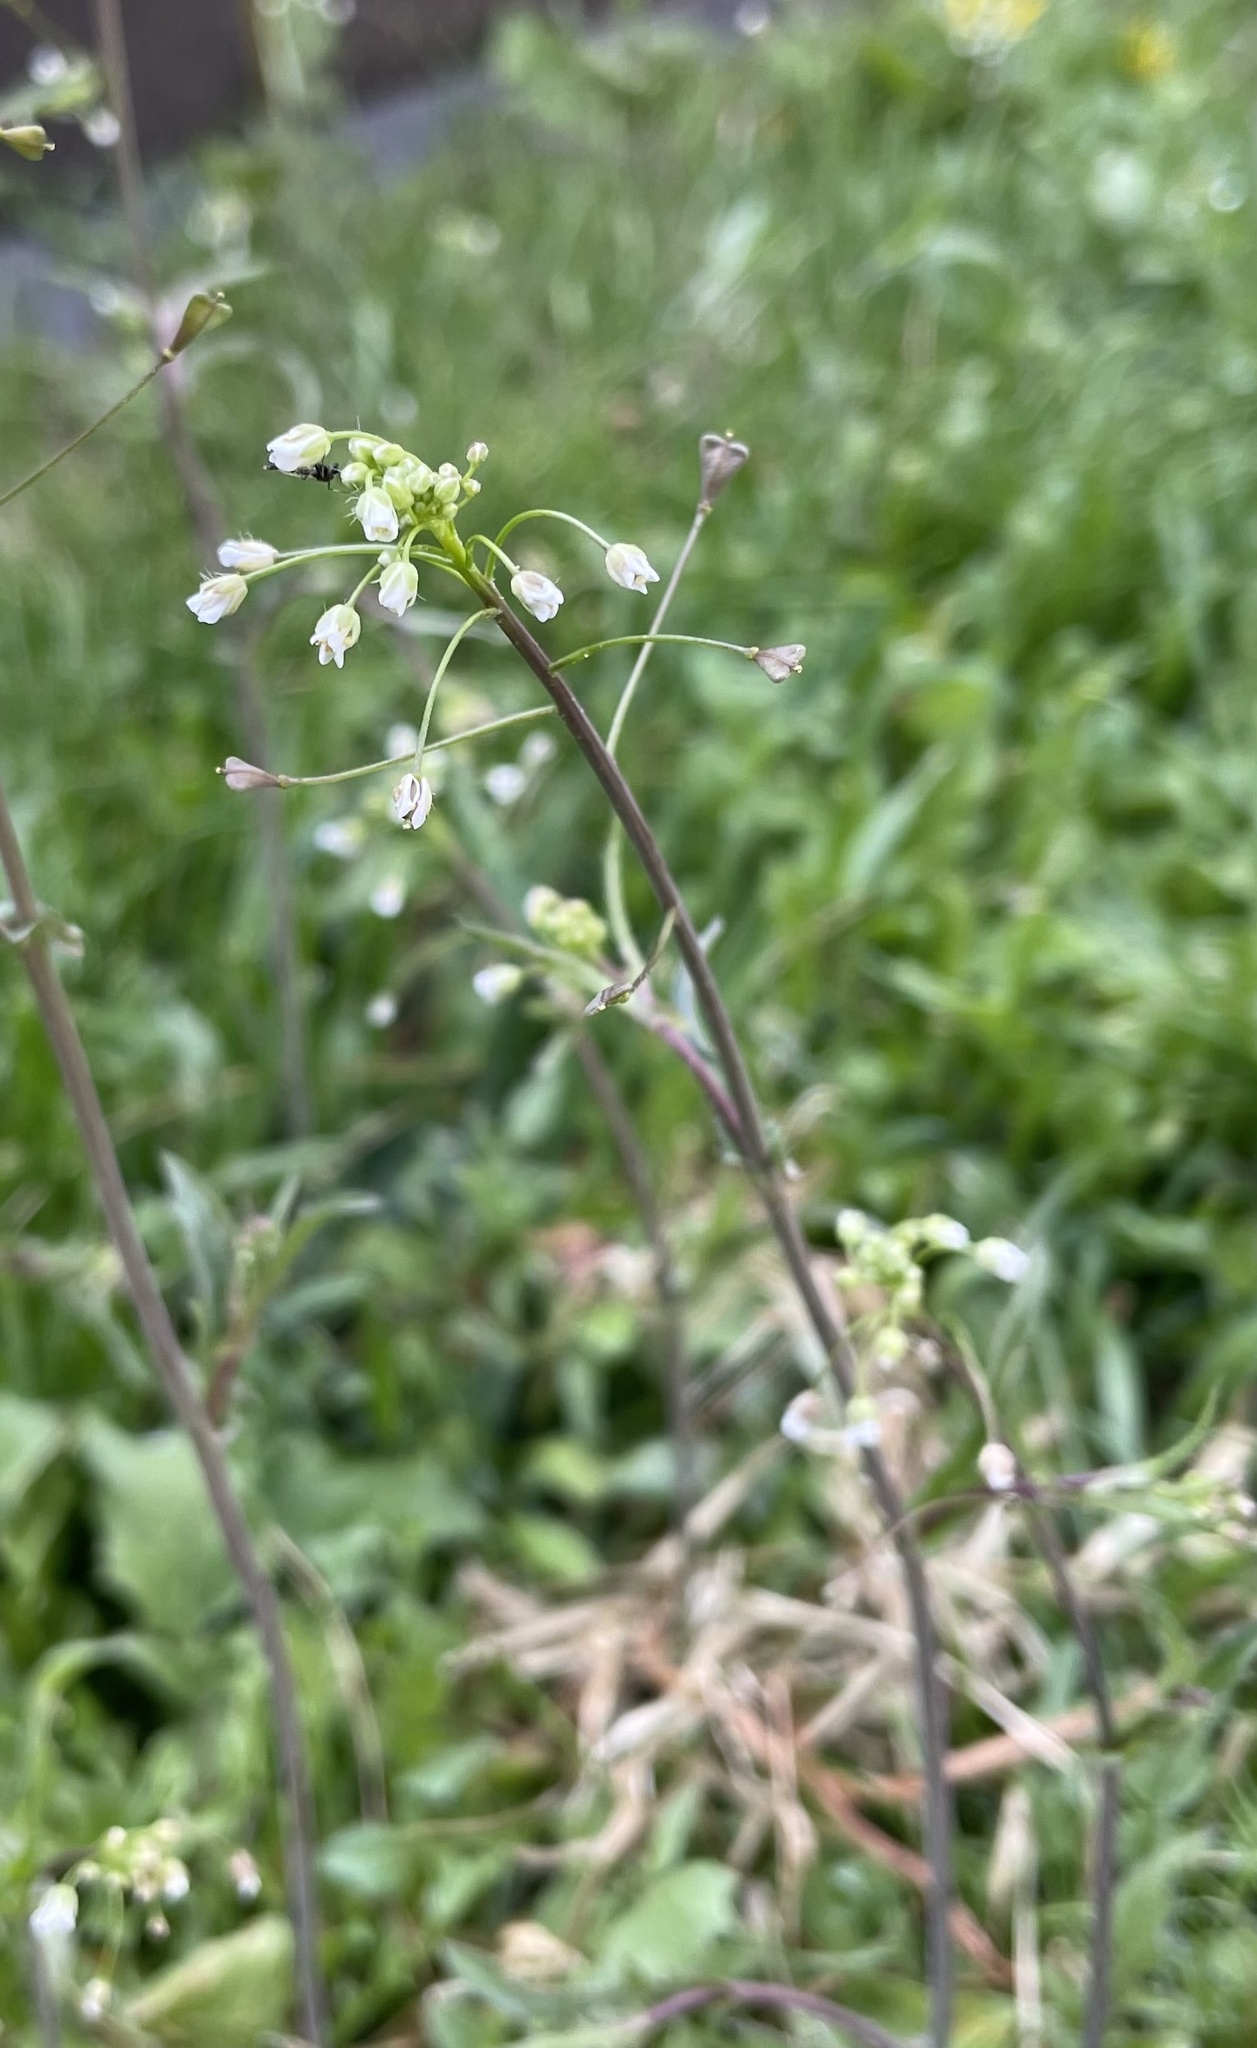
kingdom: Plantae
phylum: Tracheophyta
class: Magnoliopsida
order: Brassicales
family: Brassicaceae
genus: Capsella
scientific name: Capsella bursa-pastoris
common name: Shepherd's purse
